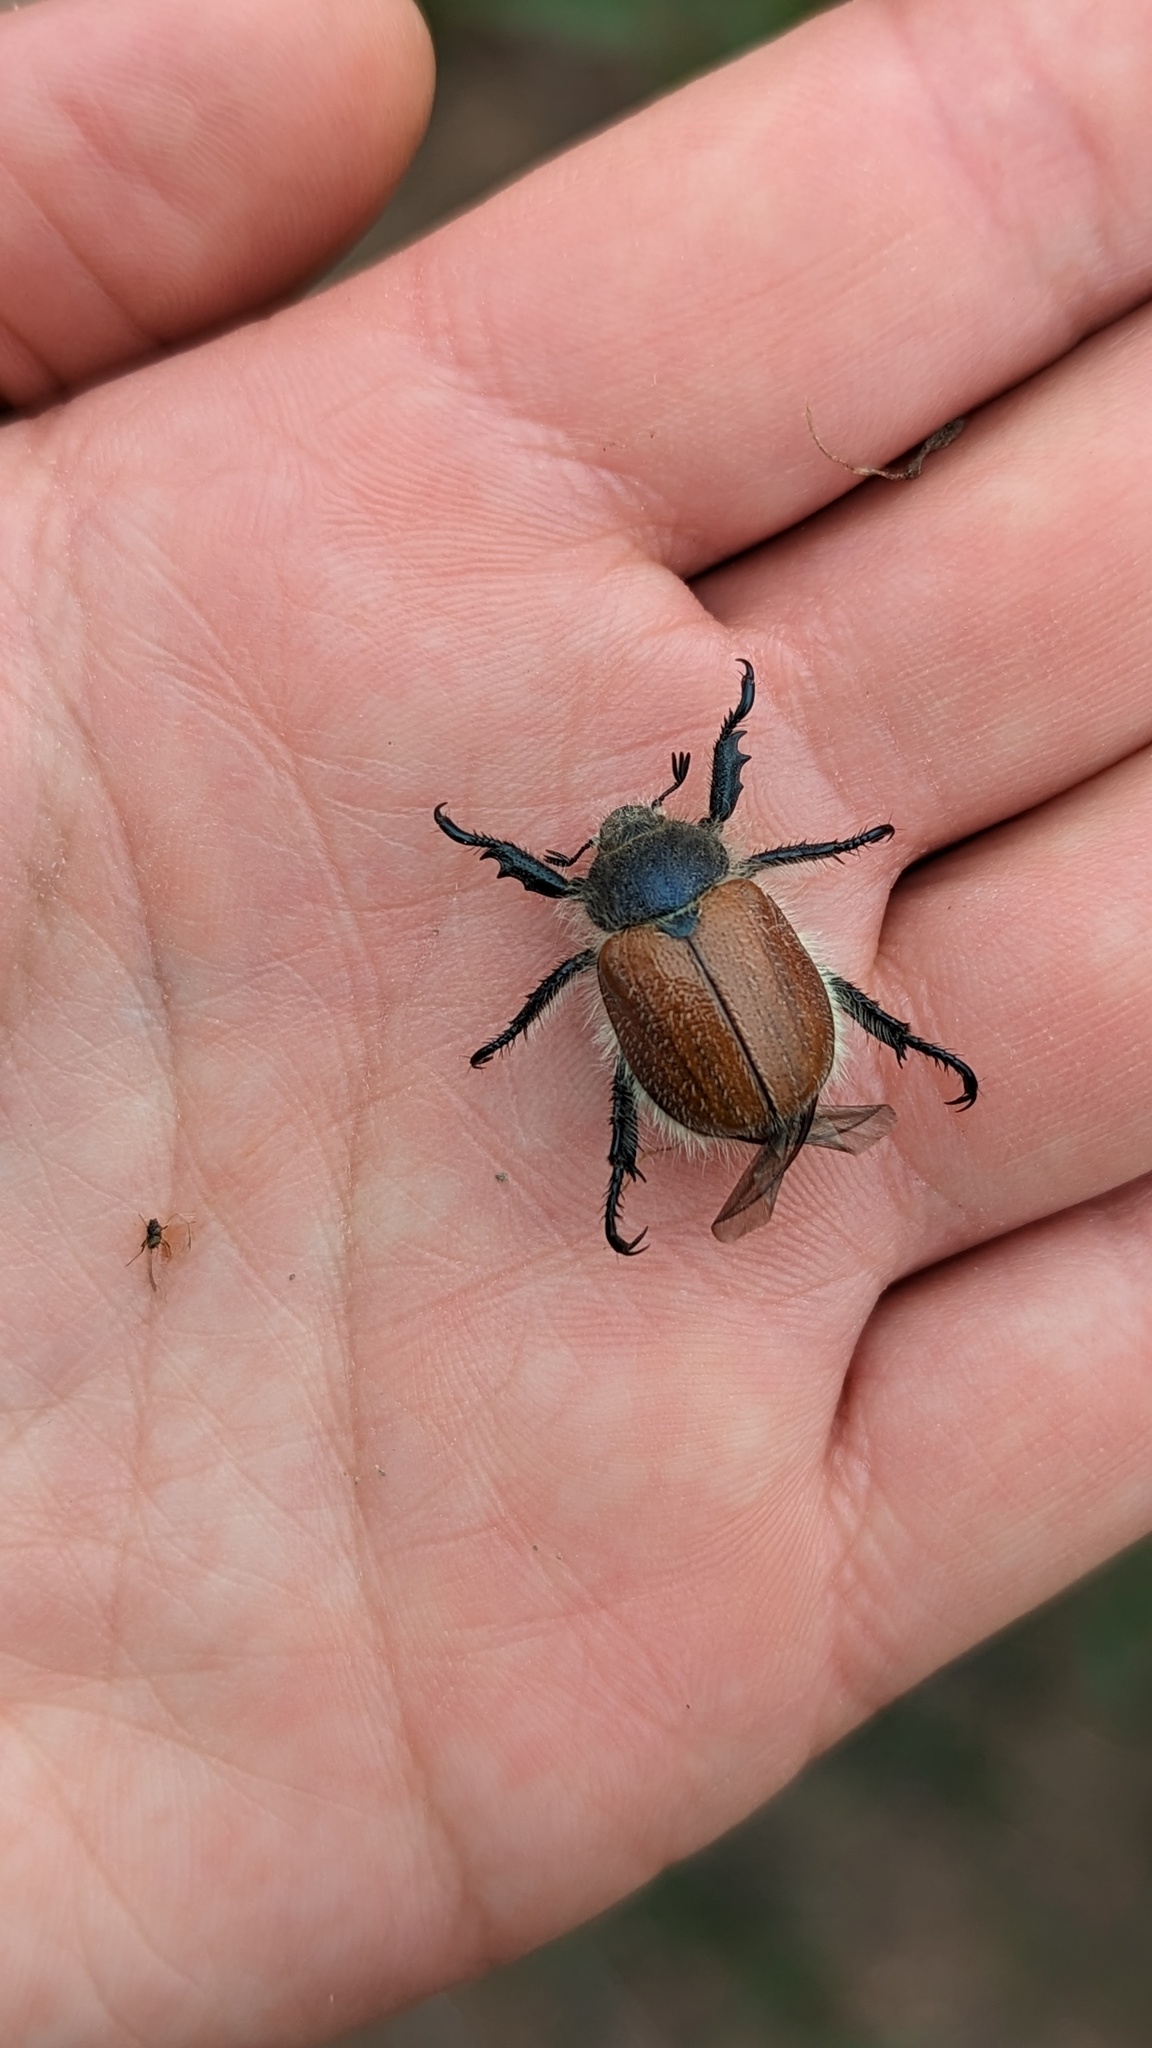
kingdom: Animalia
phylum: Arthropoda
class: Insecta
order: Coleoptera
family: Scarabaeidae
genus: Paracotalpa
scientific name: Paracotalpa ursina
